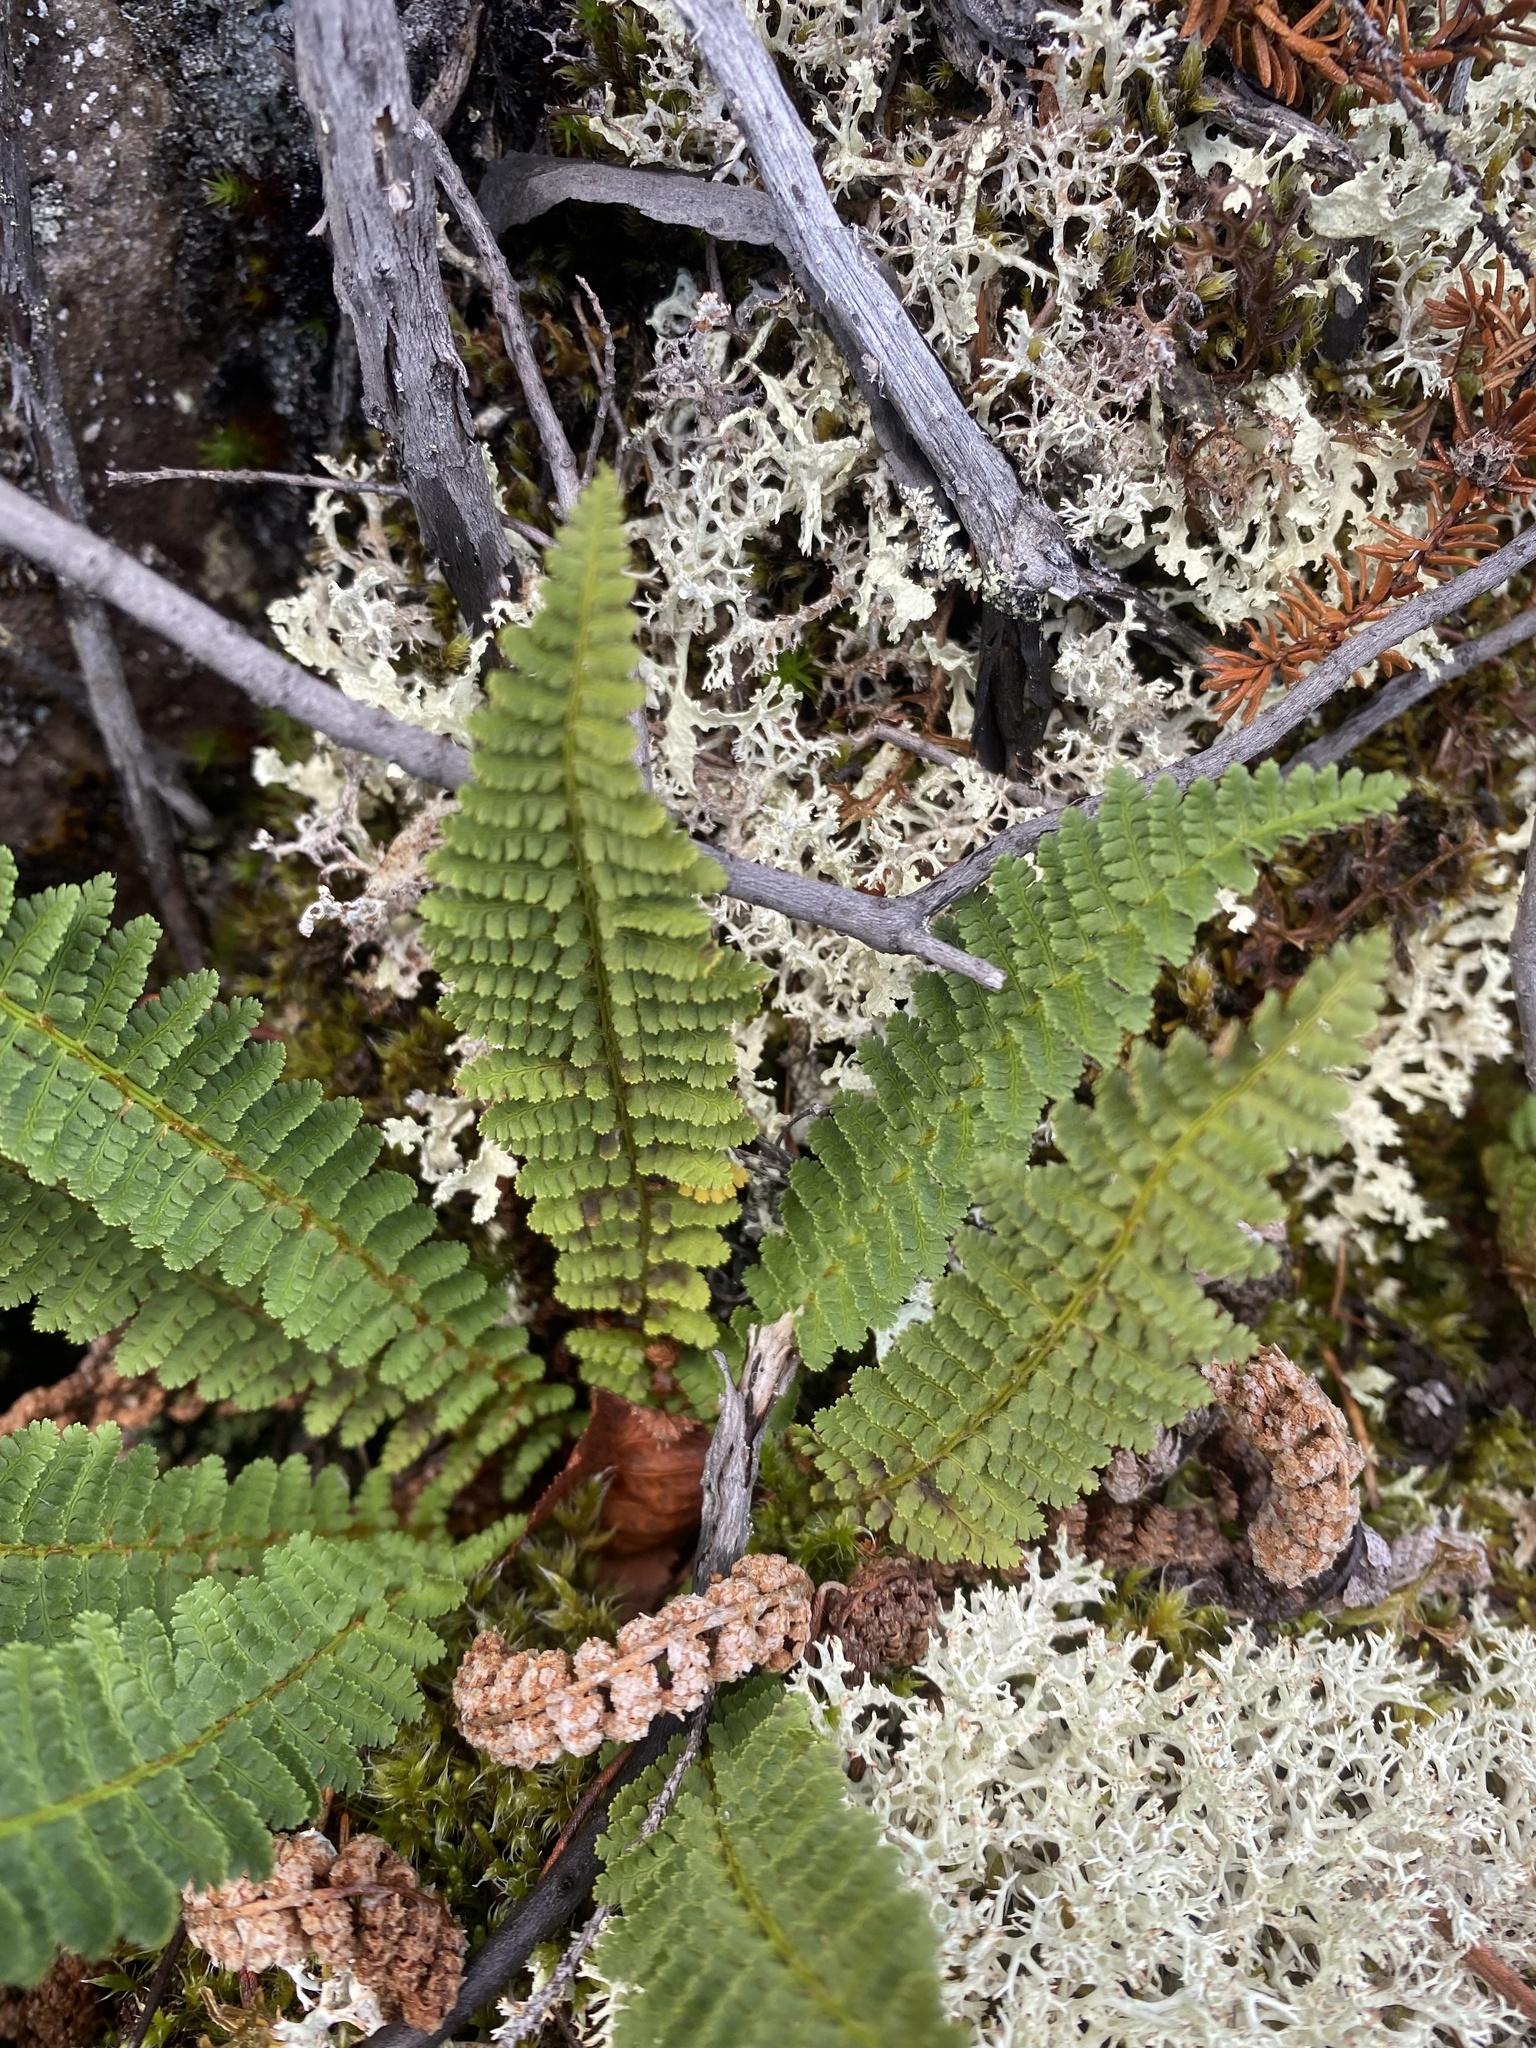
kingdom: Plantae
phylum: Tracheophyta
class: Polypodiopsida
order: Polypodiales
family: Dryopteridaceae
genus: Dryopteris
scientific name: Dryopteris fragrans
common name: Fragrant wood fern
